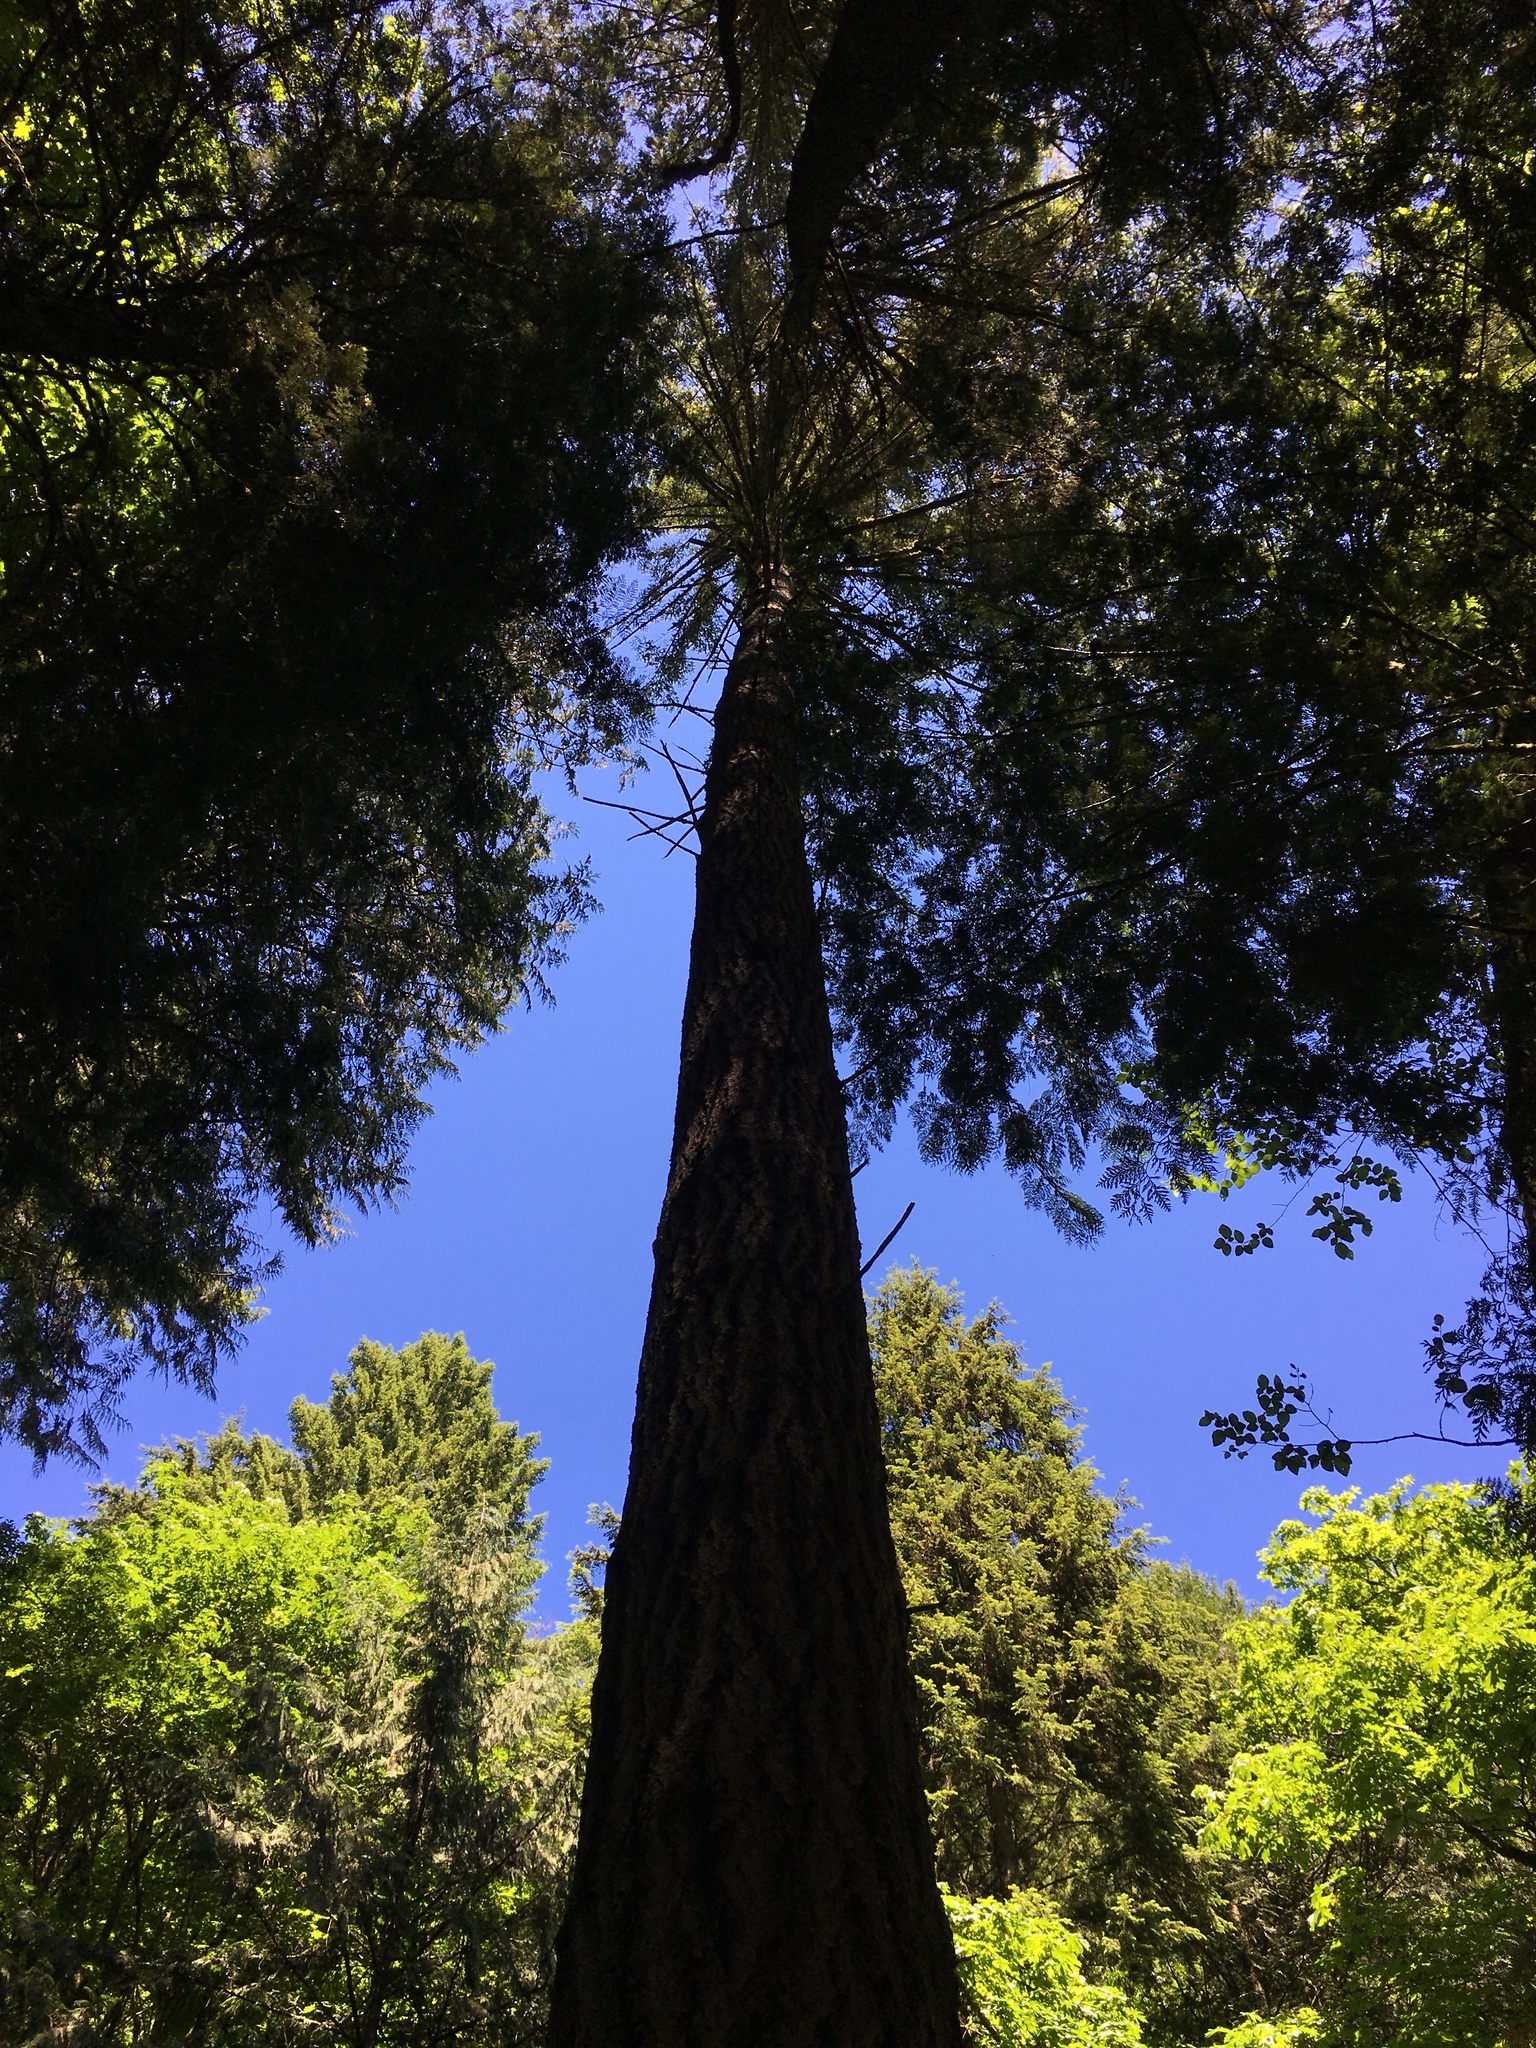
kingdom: Plantae
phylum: Tracheophyta
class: Pinopsida
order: Pinales
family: Pinaceae
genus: Pseudotsuga
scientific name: Pseudotsuga menziesii
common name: Douglas fir
